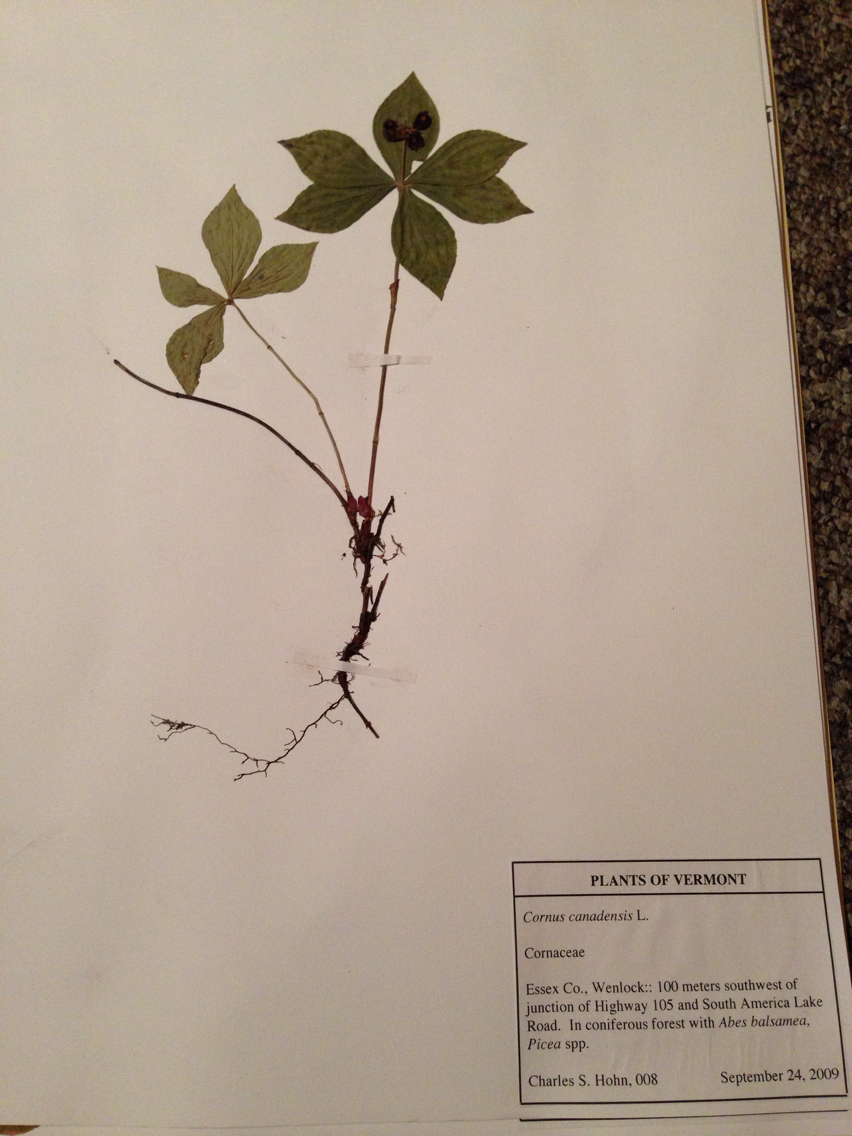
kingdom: Plantae
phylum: Tracheophyta
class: Magnoliopsida
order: Cornales
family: Cornaceae
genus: Cornus
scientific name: Cornus canadensis
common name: Creeping dogwood
